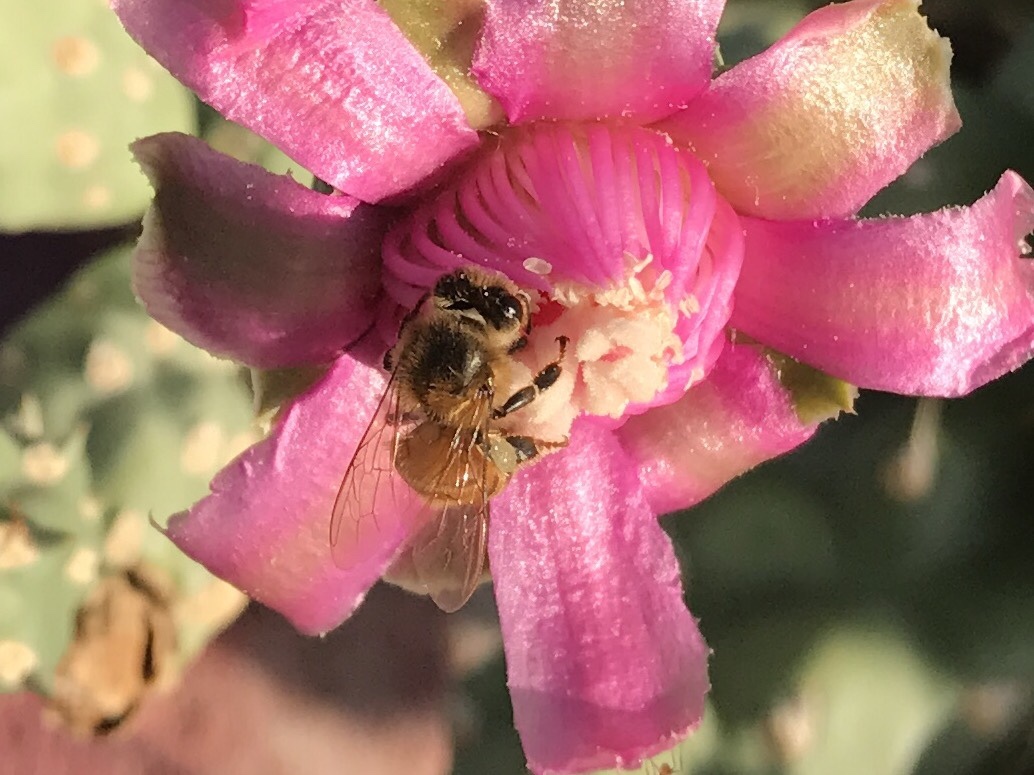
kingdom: Animalia
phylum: Arthropoda
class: Insecta
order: Hymenoptera
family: Apidae
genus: Apis
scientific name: Apis mellifera
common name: Honey bee
